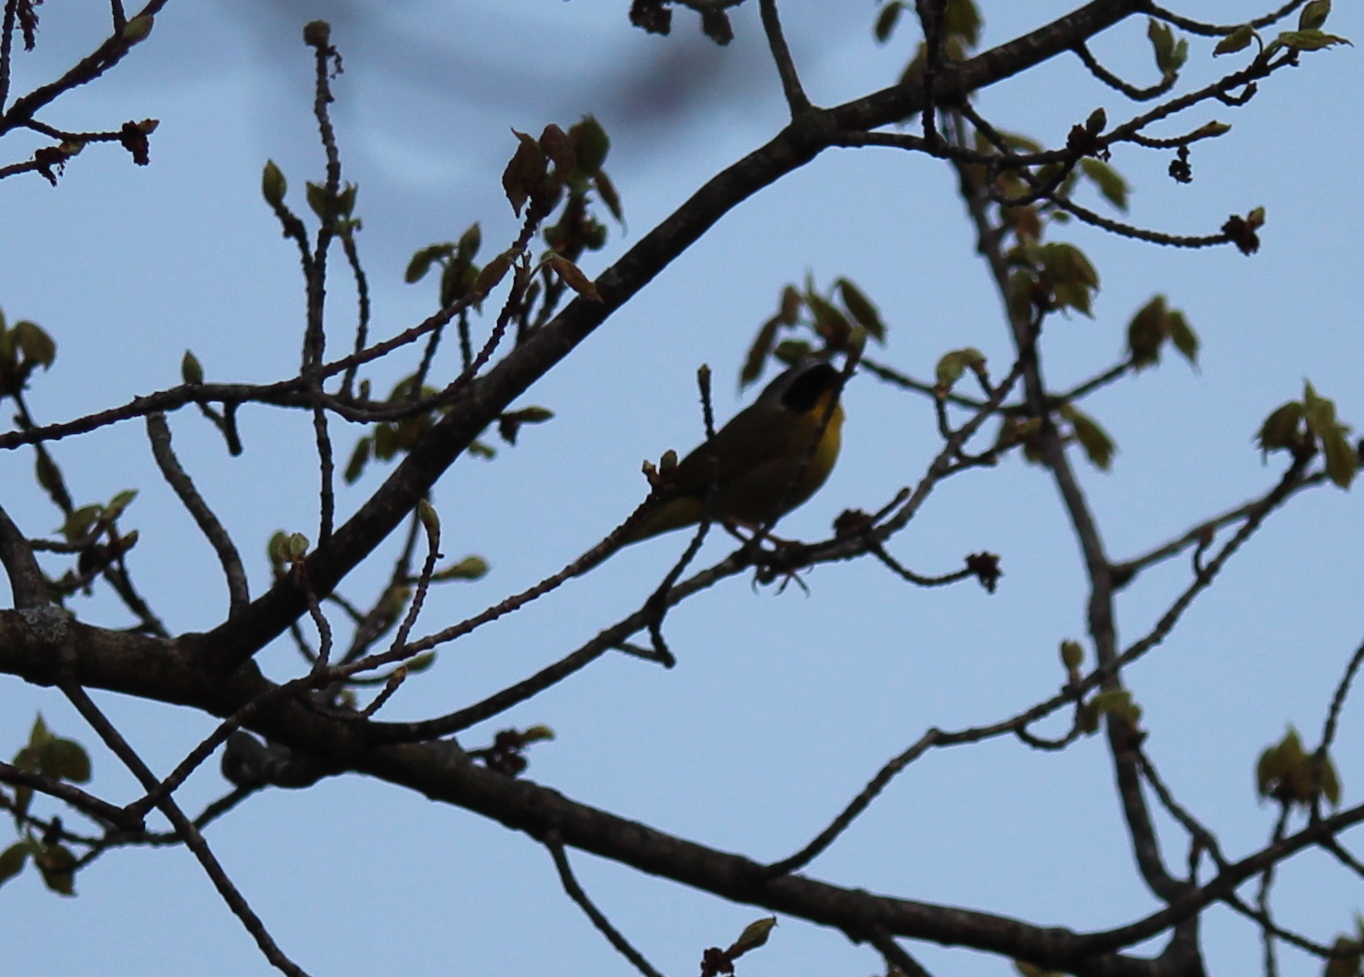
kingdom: Animalia
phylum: Chordata
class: Aves
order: Passeriformes
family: Parulidae
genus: Geothlypis
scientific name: Geothlypis trichas
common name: Common yellowthroat
